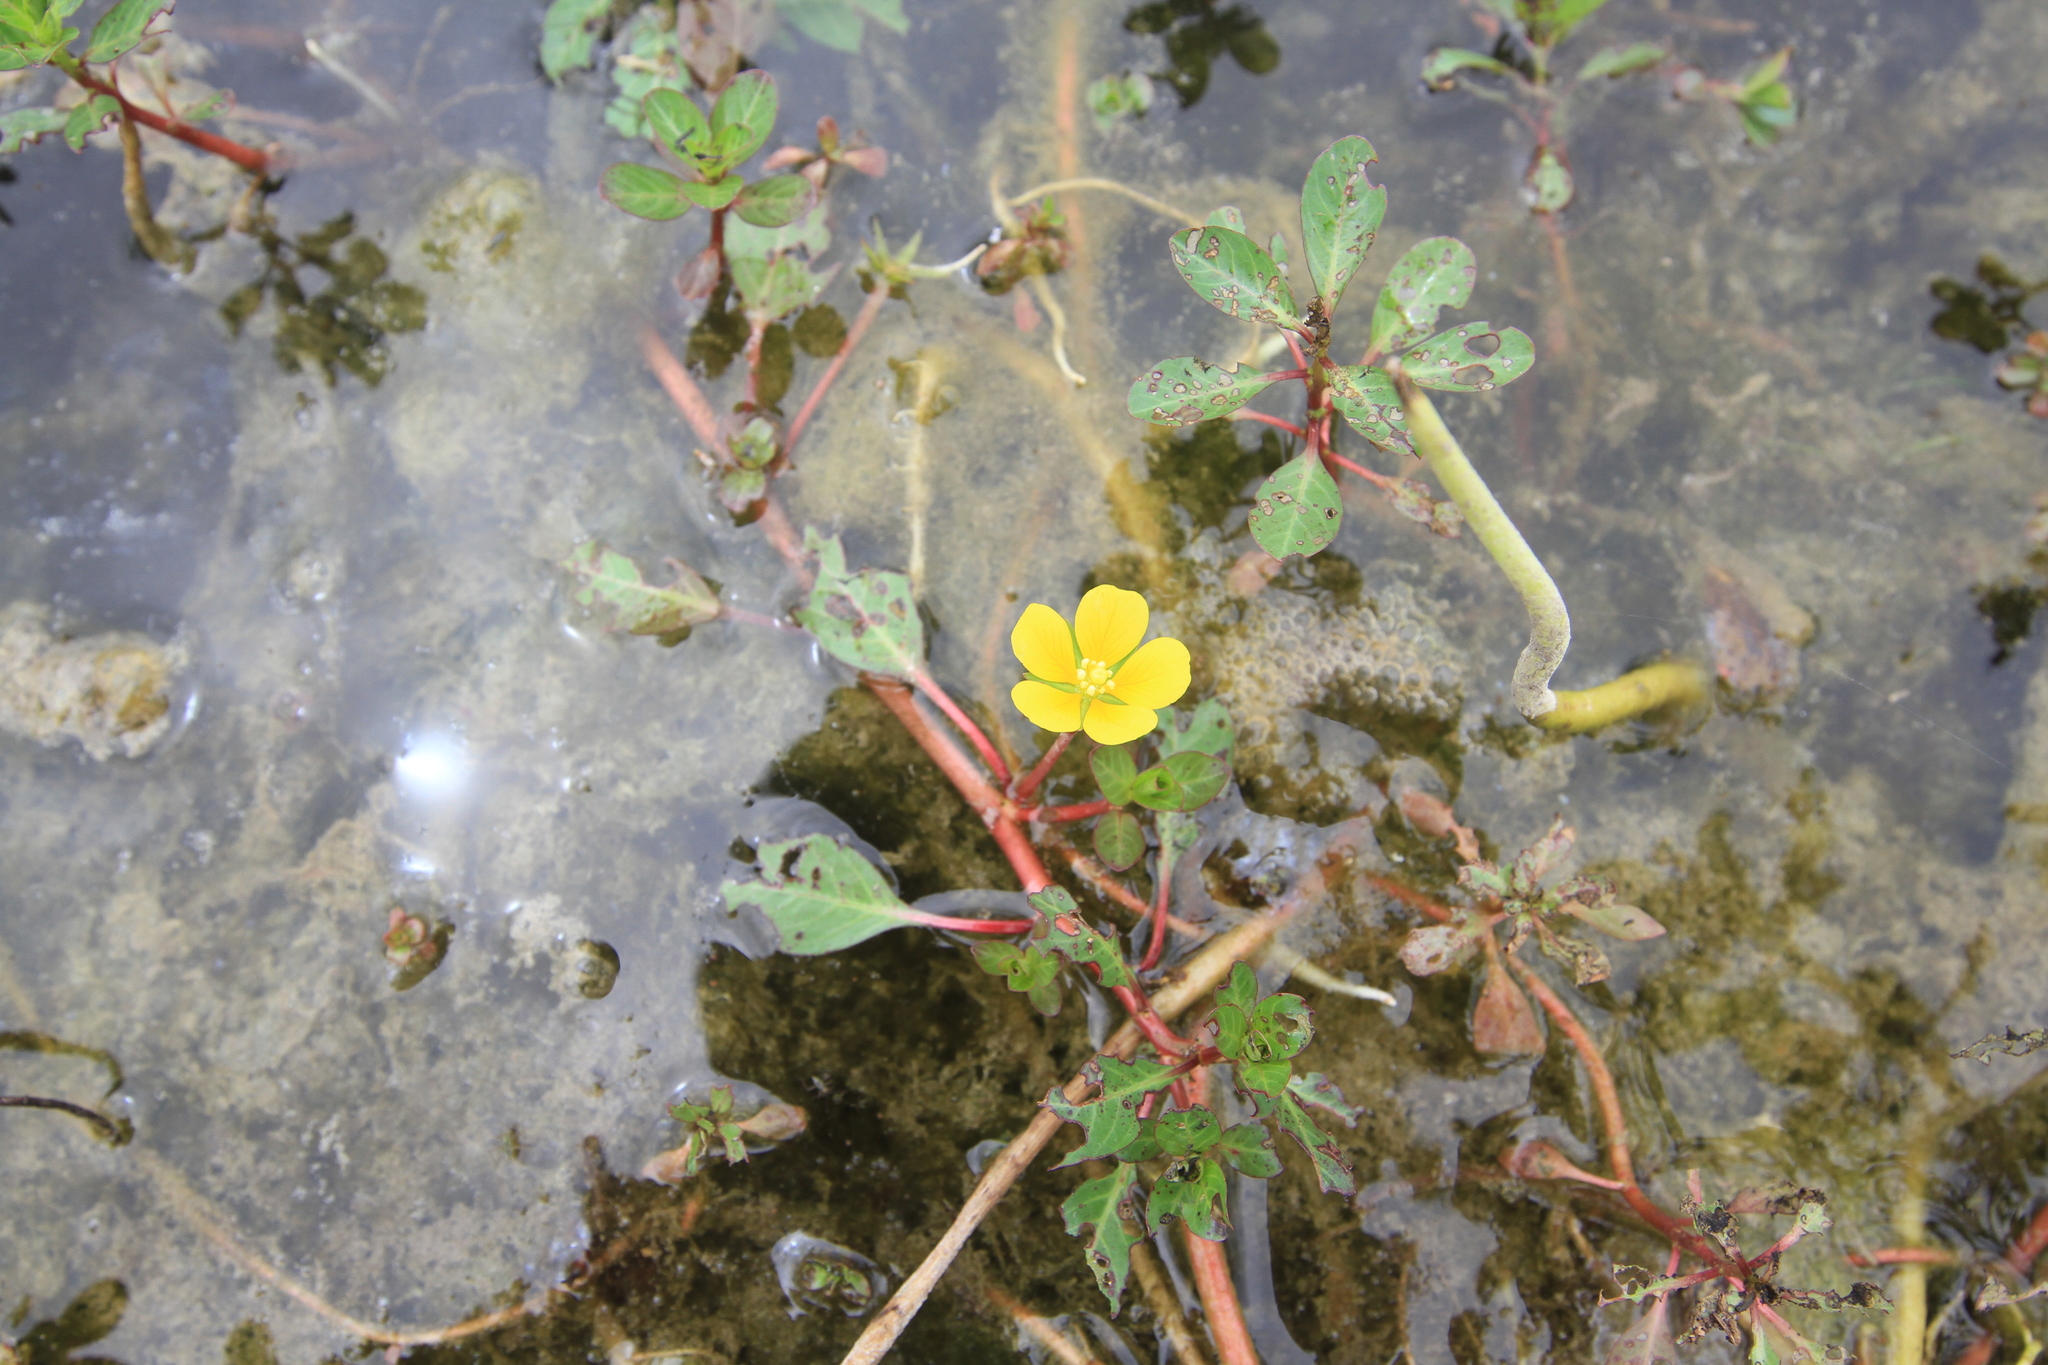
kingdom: Plantae
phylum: Tracheophyta
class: Magnoliopsida
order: Myrtales
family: Onagraceae
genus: Ludwigia
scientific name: Ludwigia peploides
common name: Floating primrose-willow
